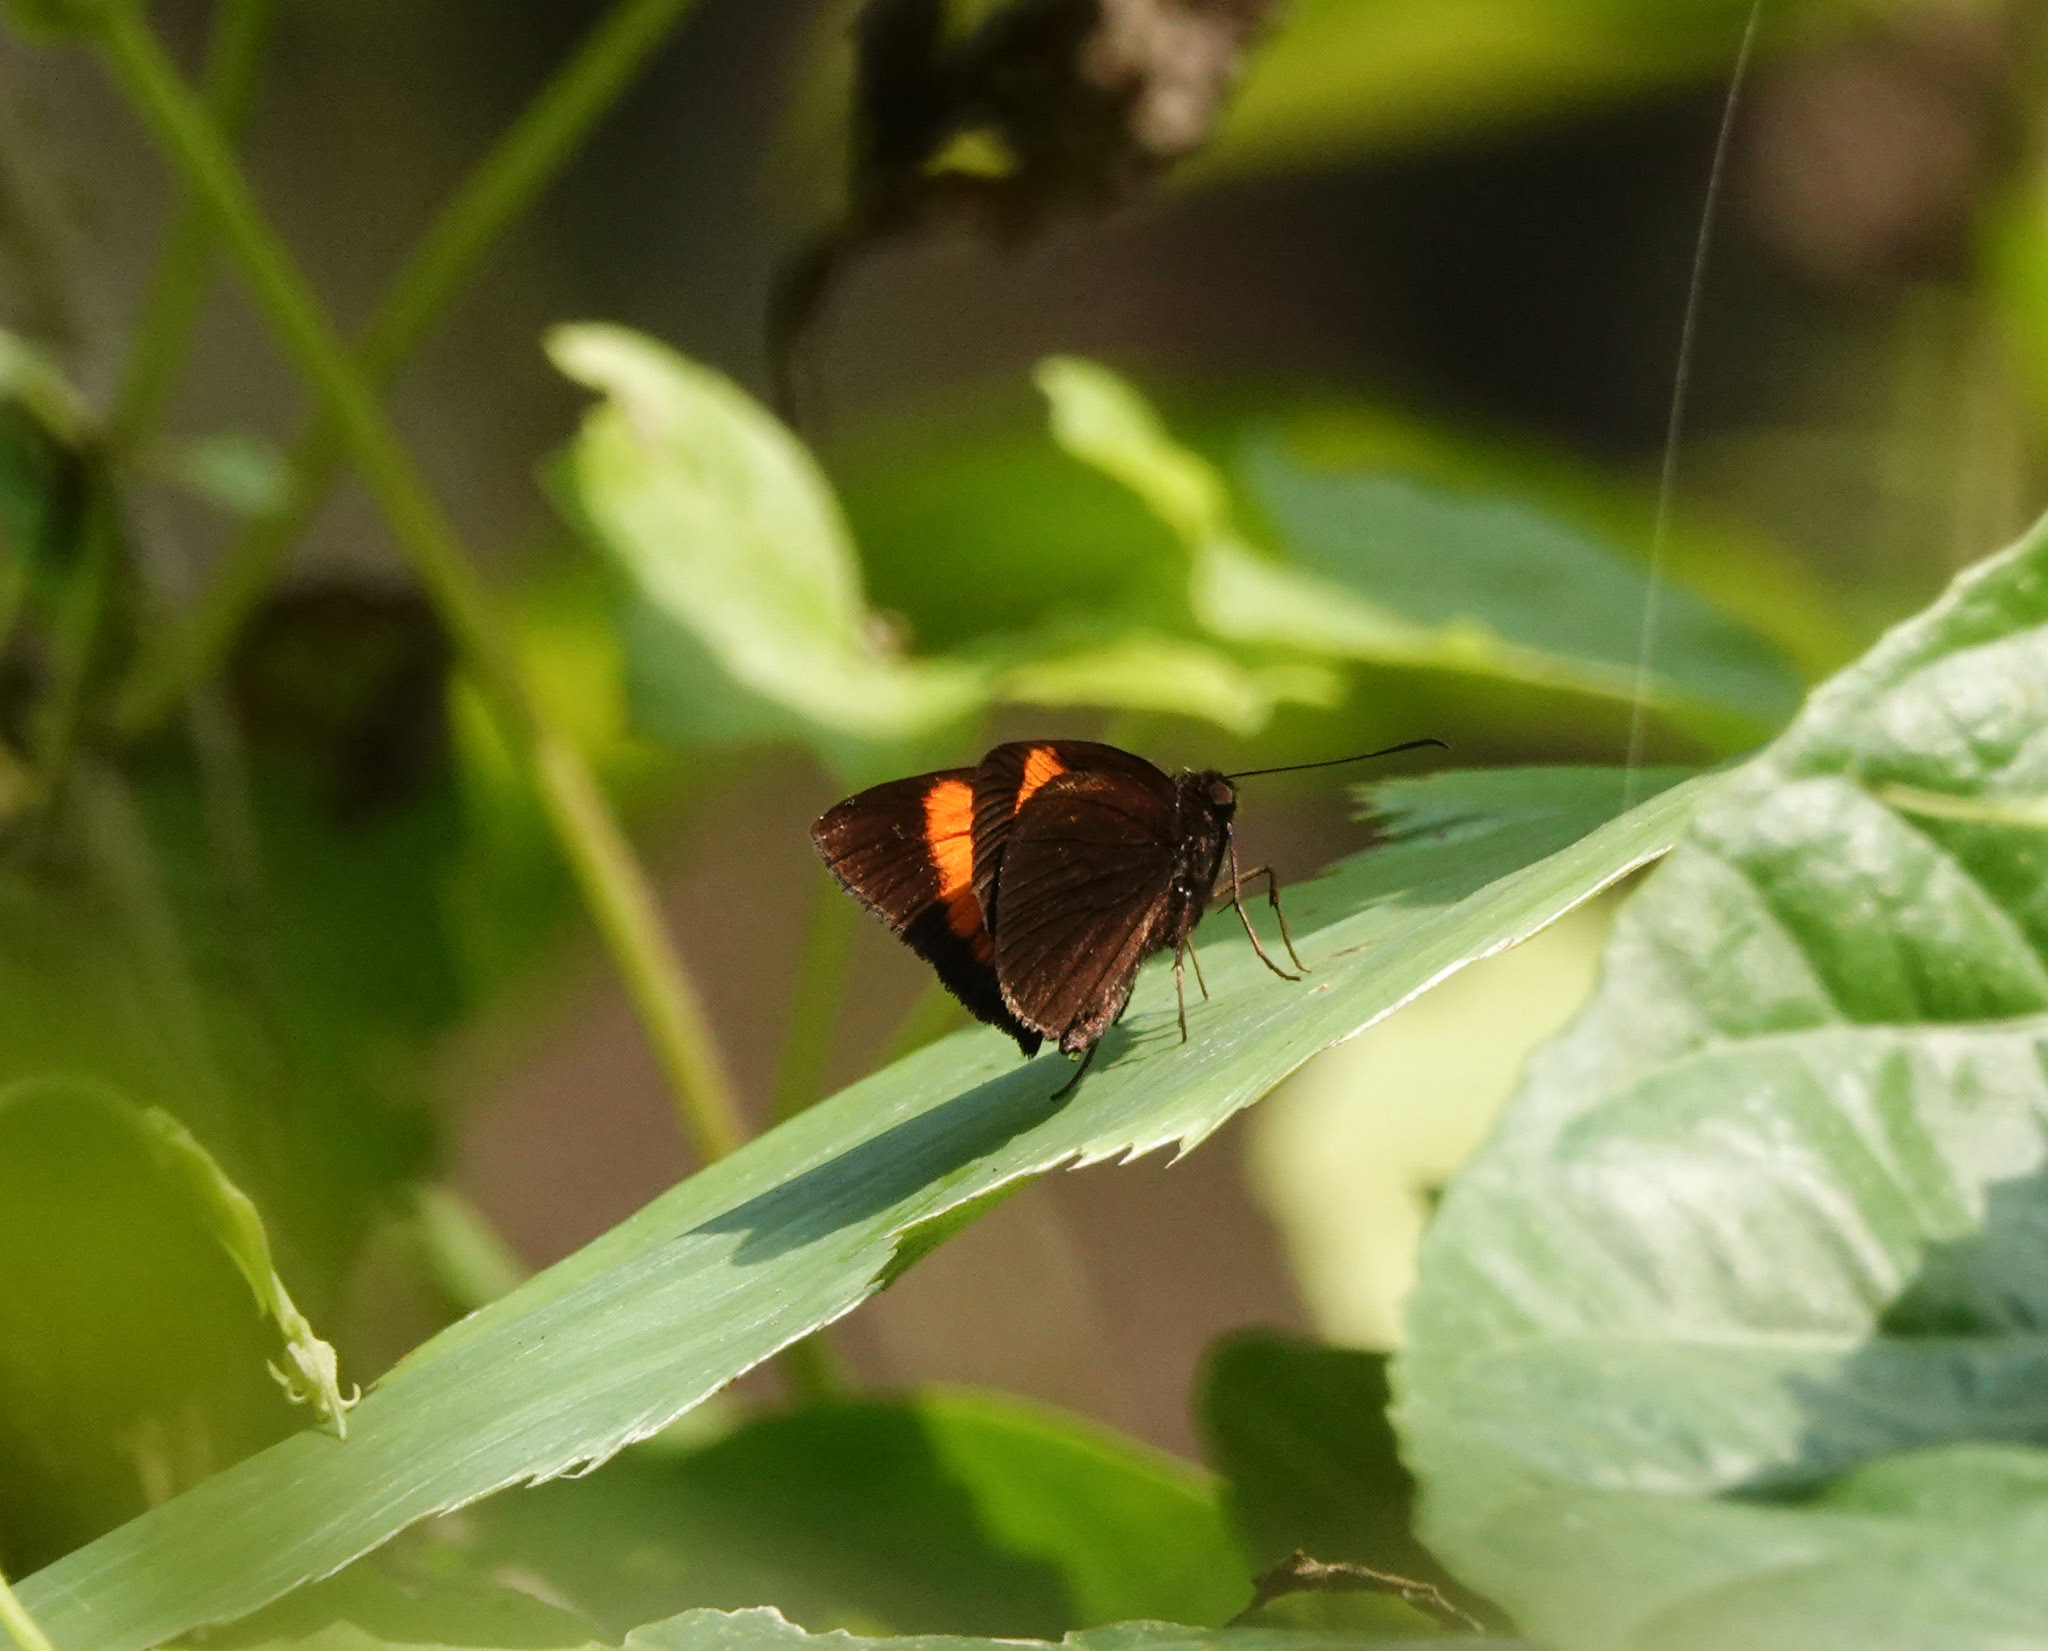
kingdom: Animalia
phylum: Arthropoda
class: Insecta
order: Lepidoptera
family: Hesperiidae
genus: Koruthaialos
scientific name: Koruthaialos sindu
